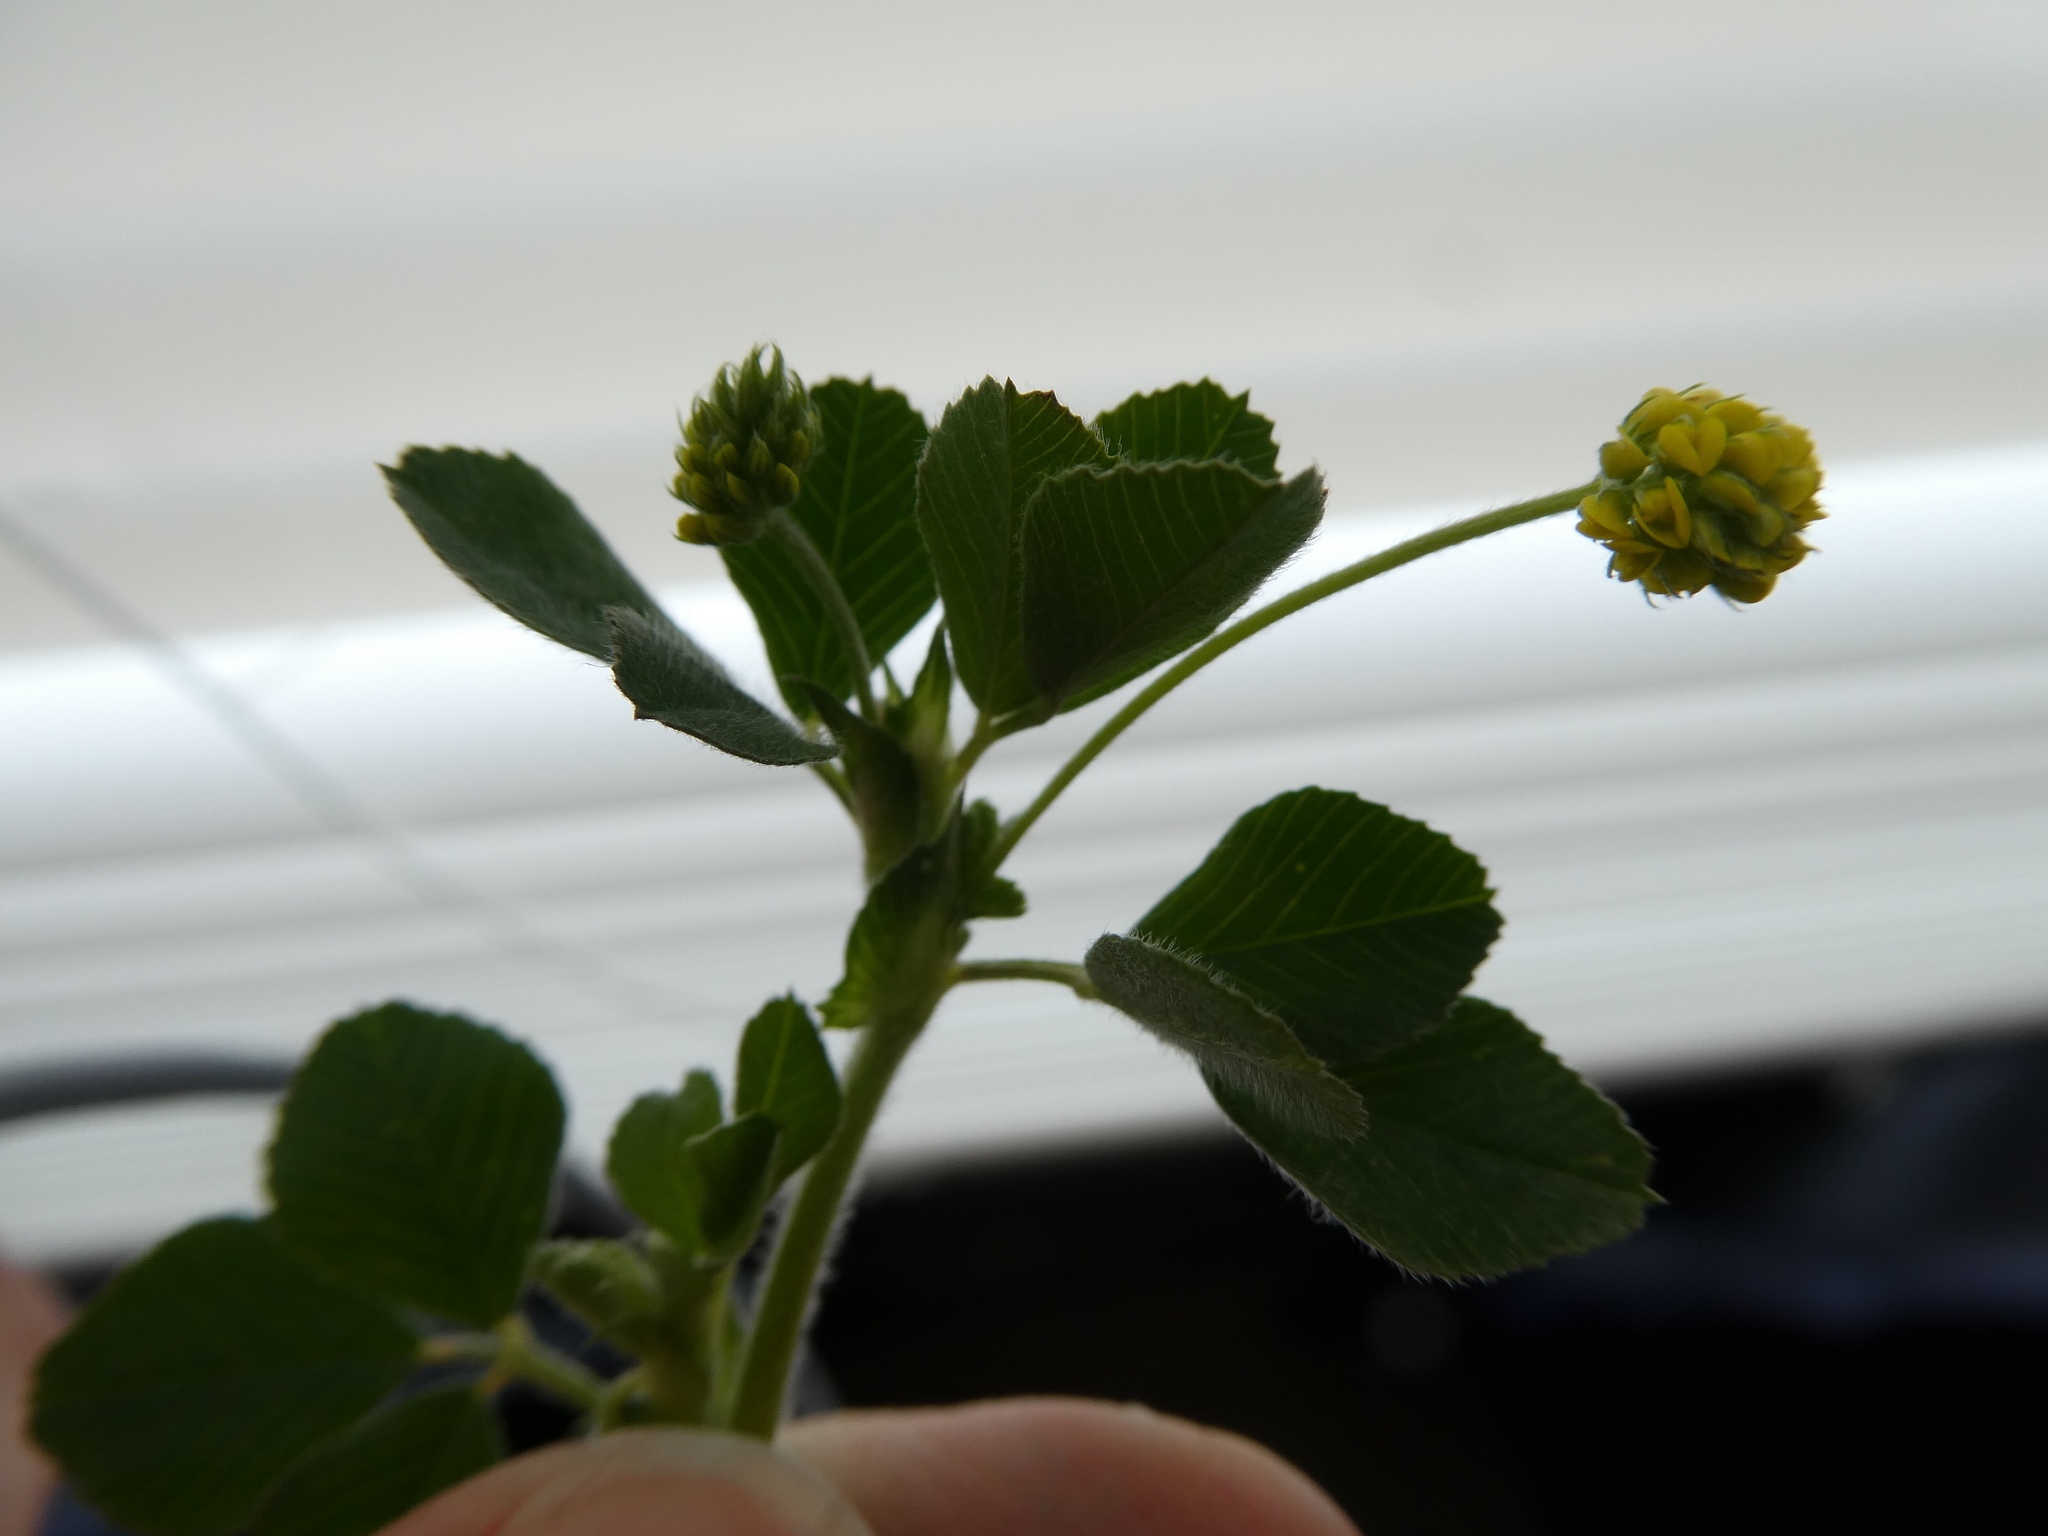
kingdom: Plantae
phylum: Tracheophyta
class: Magnoliopsida
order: Fabales
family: Fabaceae
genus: Medicago
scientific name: Medicago lupulina
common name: Black medick
